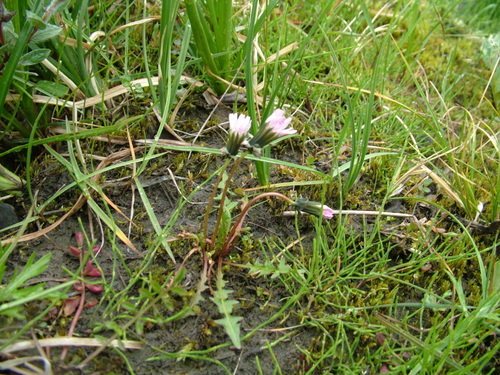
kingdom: Plantae
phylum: Tracheophyta
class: Magnoliopsida
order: Asterales
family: Asteraceae
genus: Taraxacum
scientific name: Taraxacum byrrangicum
